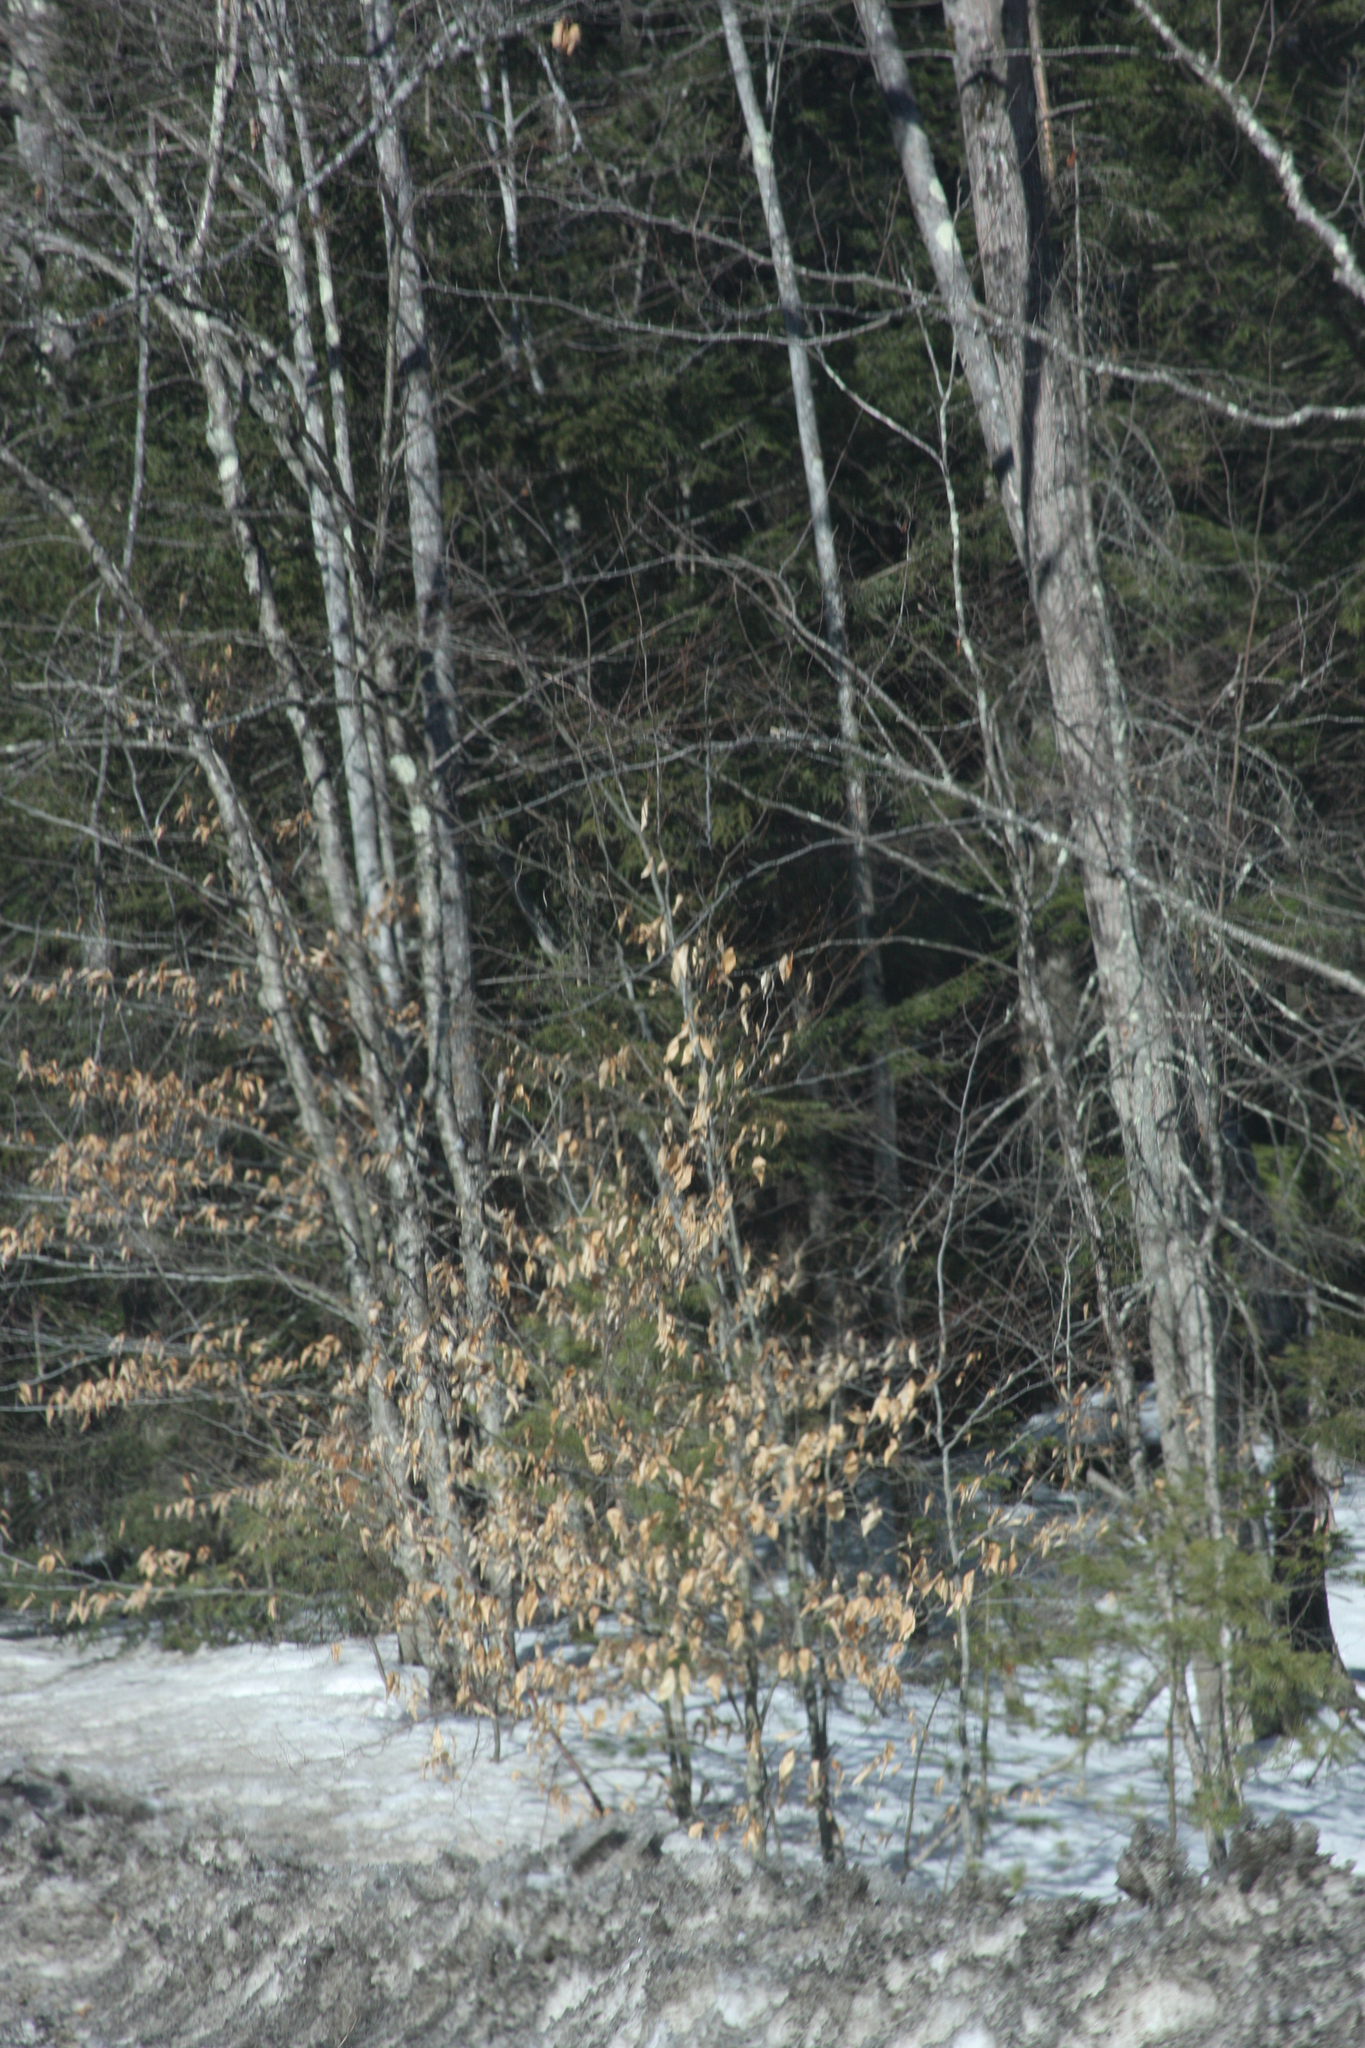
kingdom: Plantae
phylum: Tracheophyta
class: Magnoliopsida
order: Fagales
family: Fagaceae
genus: Fagus
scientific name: Fagus grandifolia
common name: American beech
